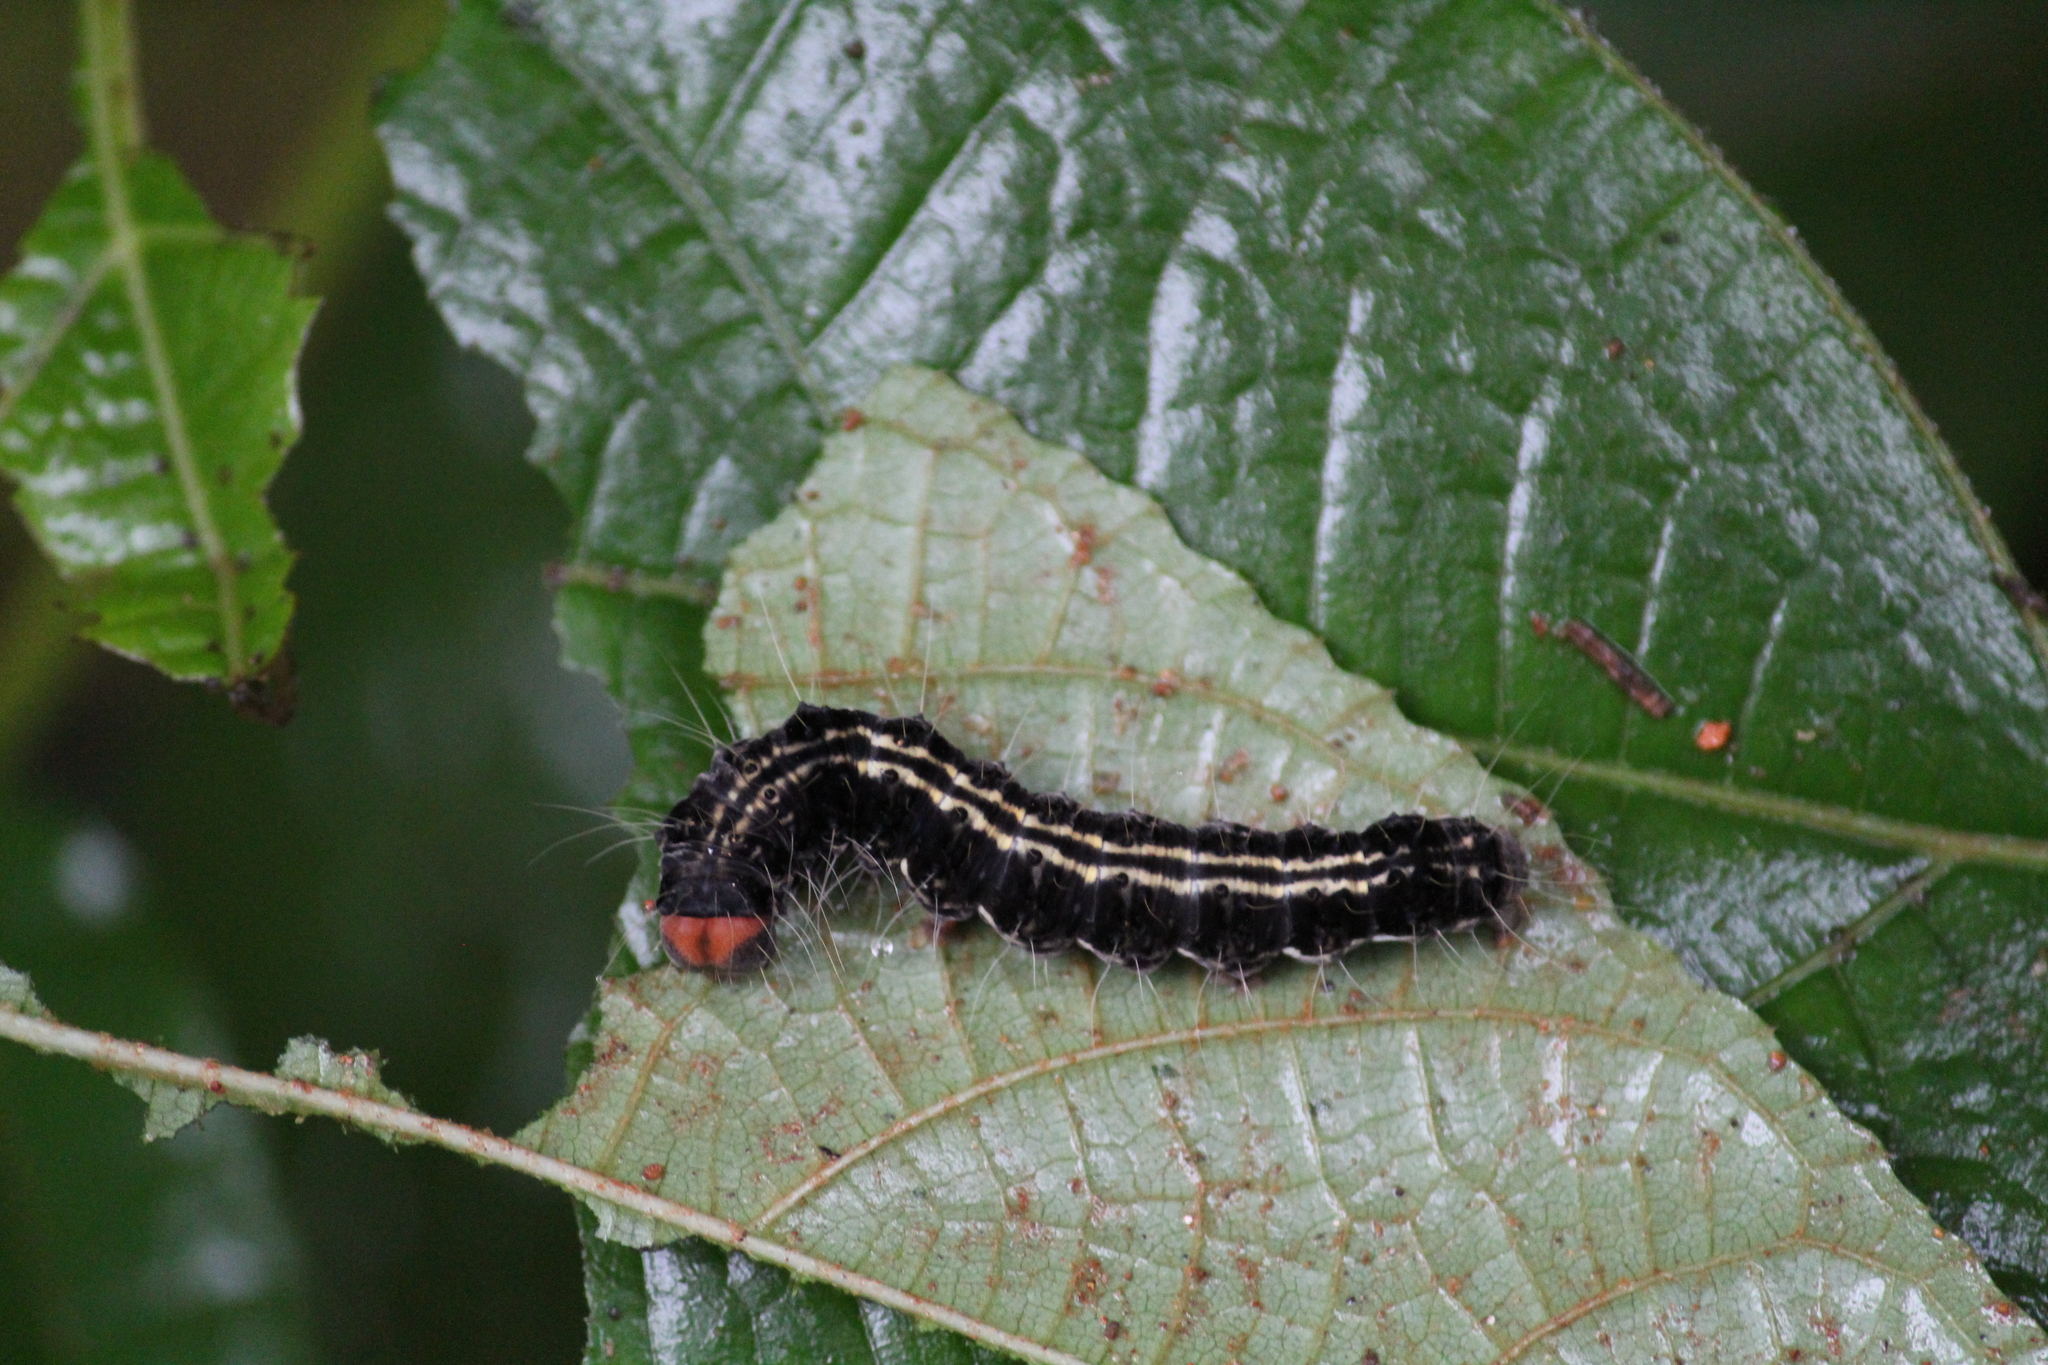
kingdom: Animalia
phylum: Arthropoda
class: Insecta
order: Lepidoptera
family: Erebidae
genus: Asota
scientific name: Asota caricae
